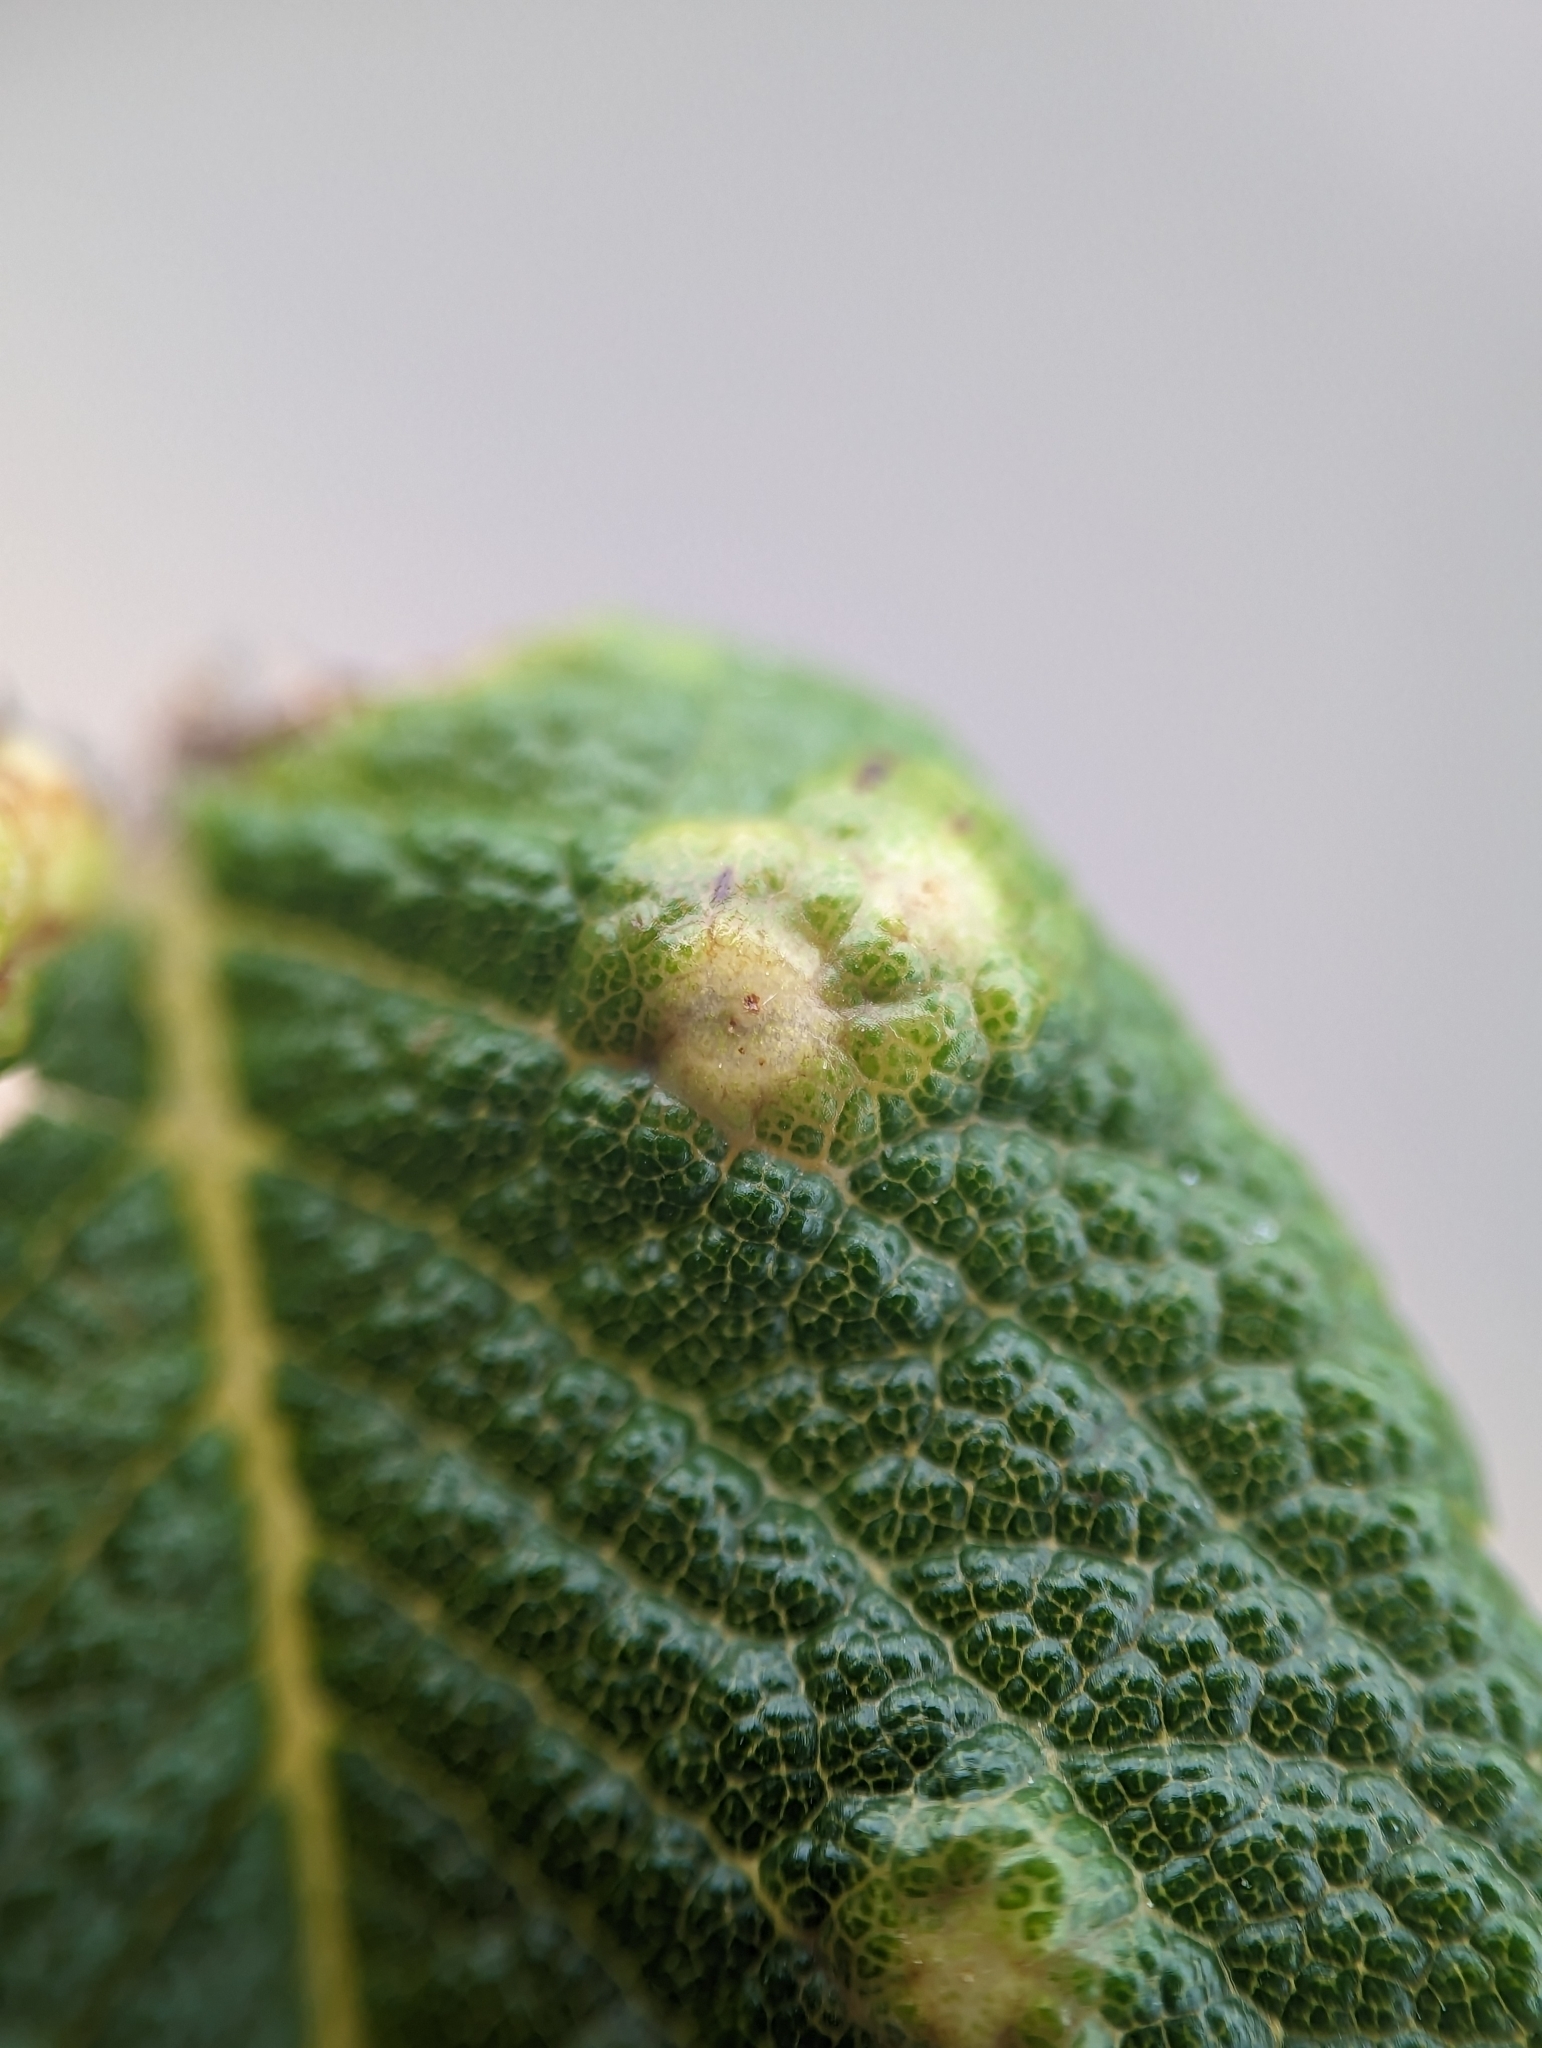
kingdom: Animalia
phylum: Arthropoda
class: Insecta
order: Hymenoptera
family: Cynipidae
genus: Diplolepis
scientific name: Diplolepis rosaefolii
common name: Blister-gall wasp
